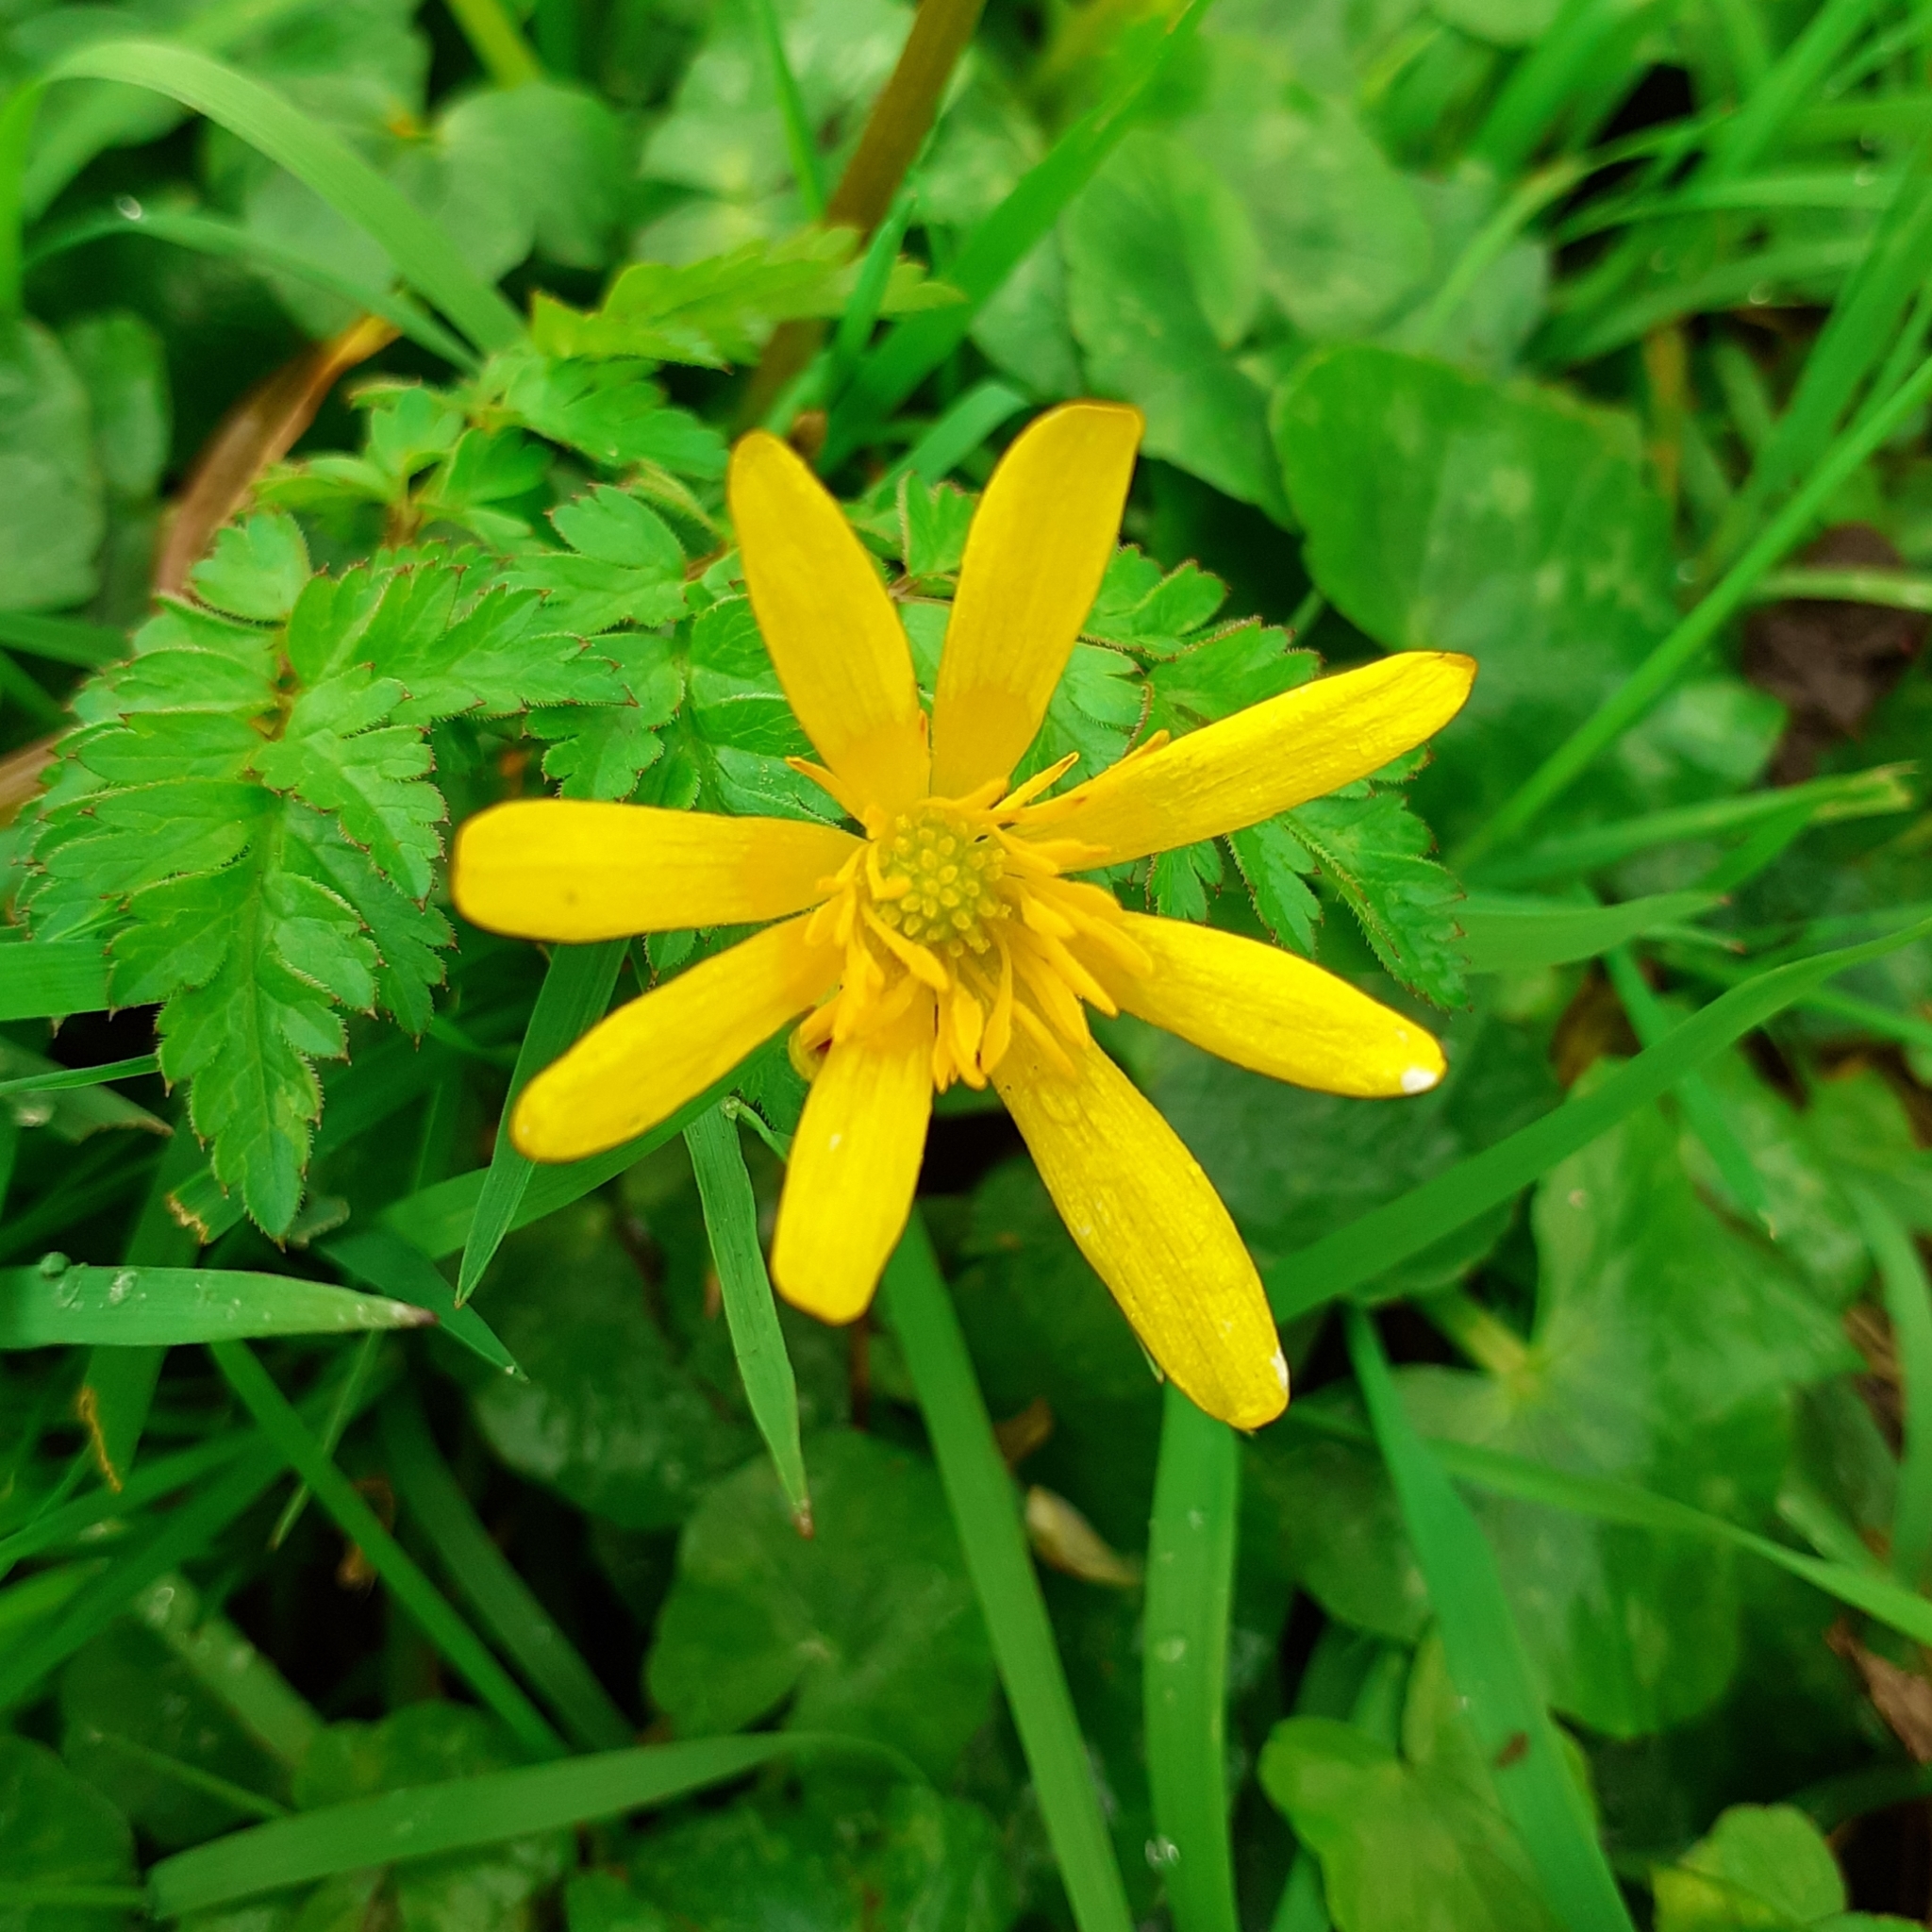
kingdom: Plantae
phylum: Tracheophyta
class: Magnoliopsida
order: Ranunculales
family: Ranunculaceae
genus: Ficaria
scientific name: Ficaria verna
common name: Lesser celandine
